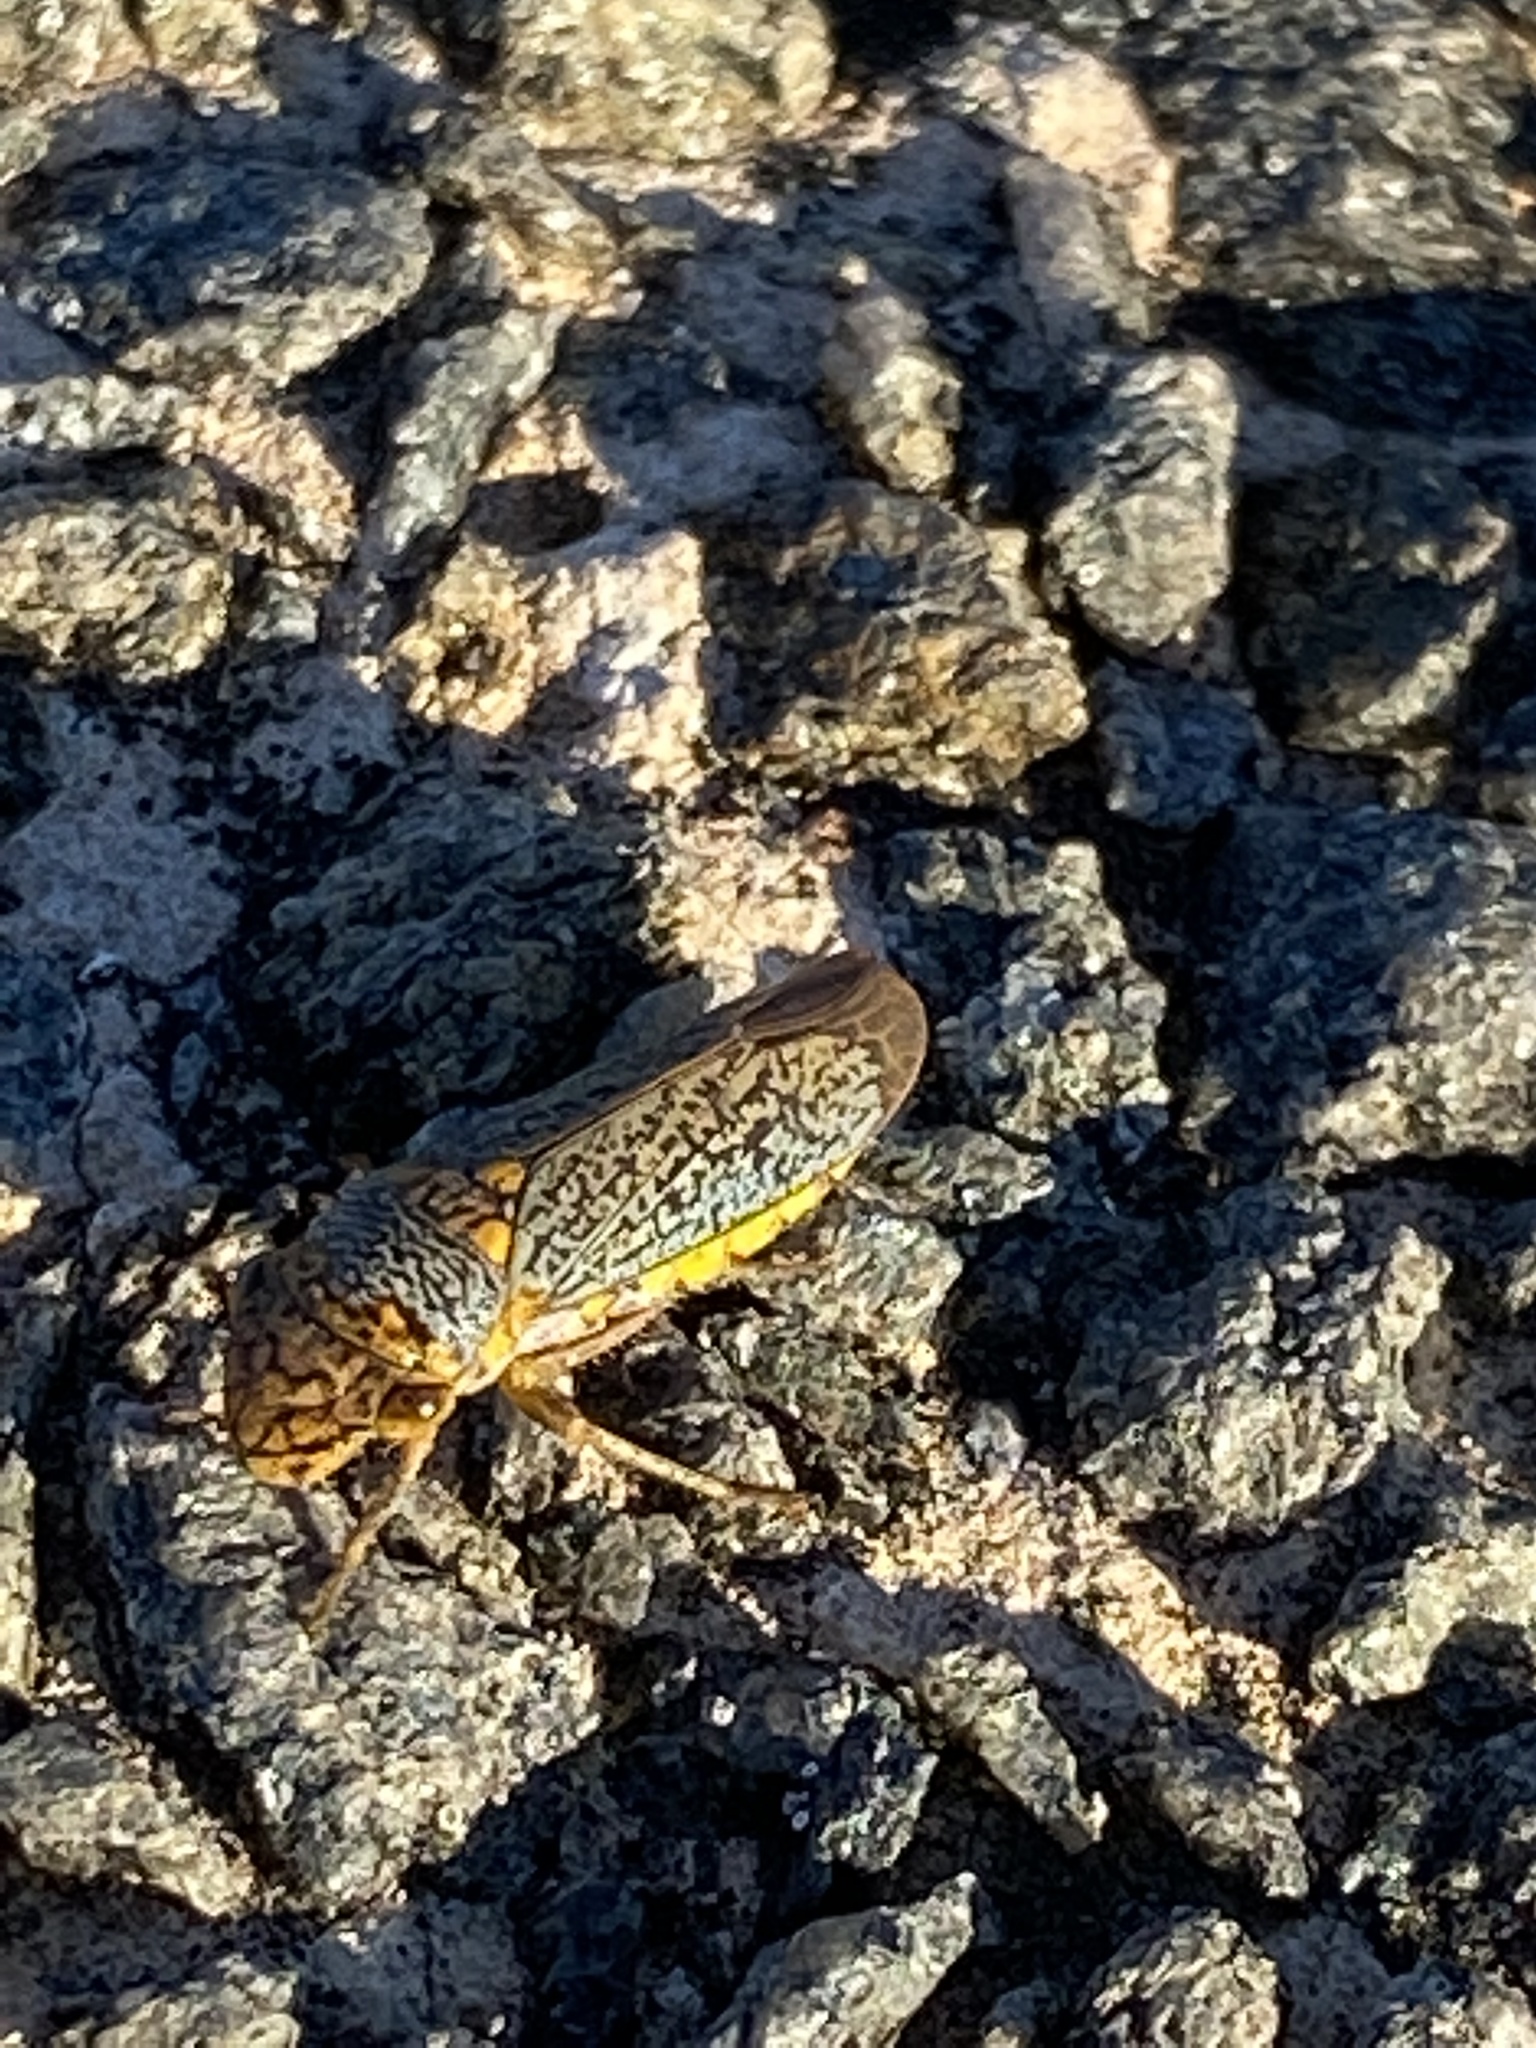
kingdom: Animalia
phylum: Arthropoda
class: Insecta
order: Hemiptera
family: Cicadellidae
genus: Oncometopia
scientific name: Oncometopia orbona
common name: Broad-headed sharpshooter
